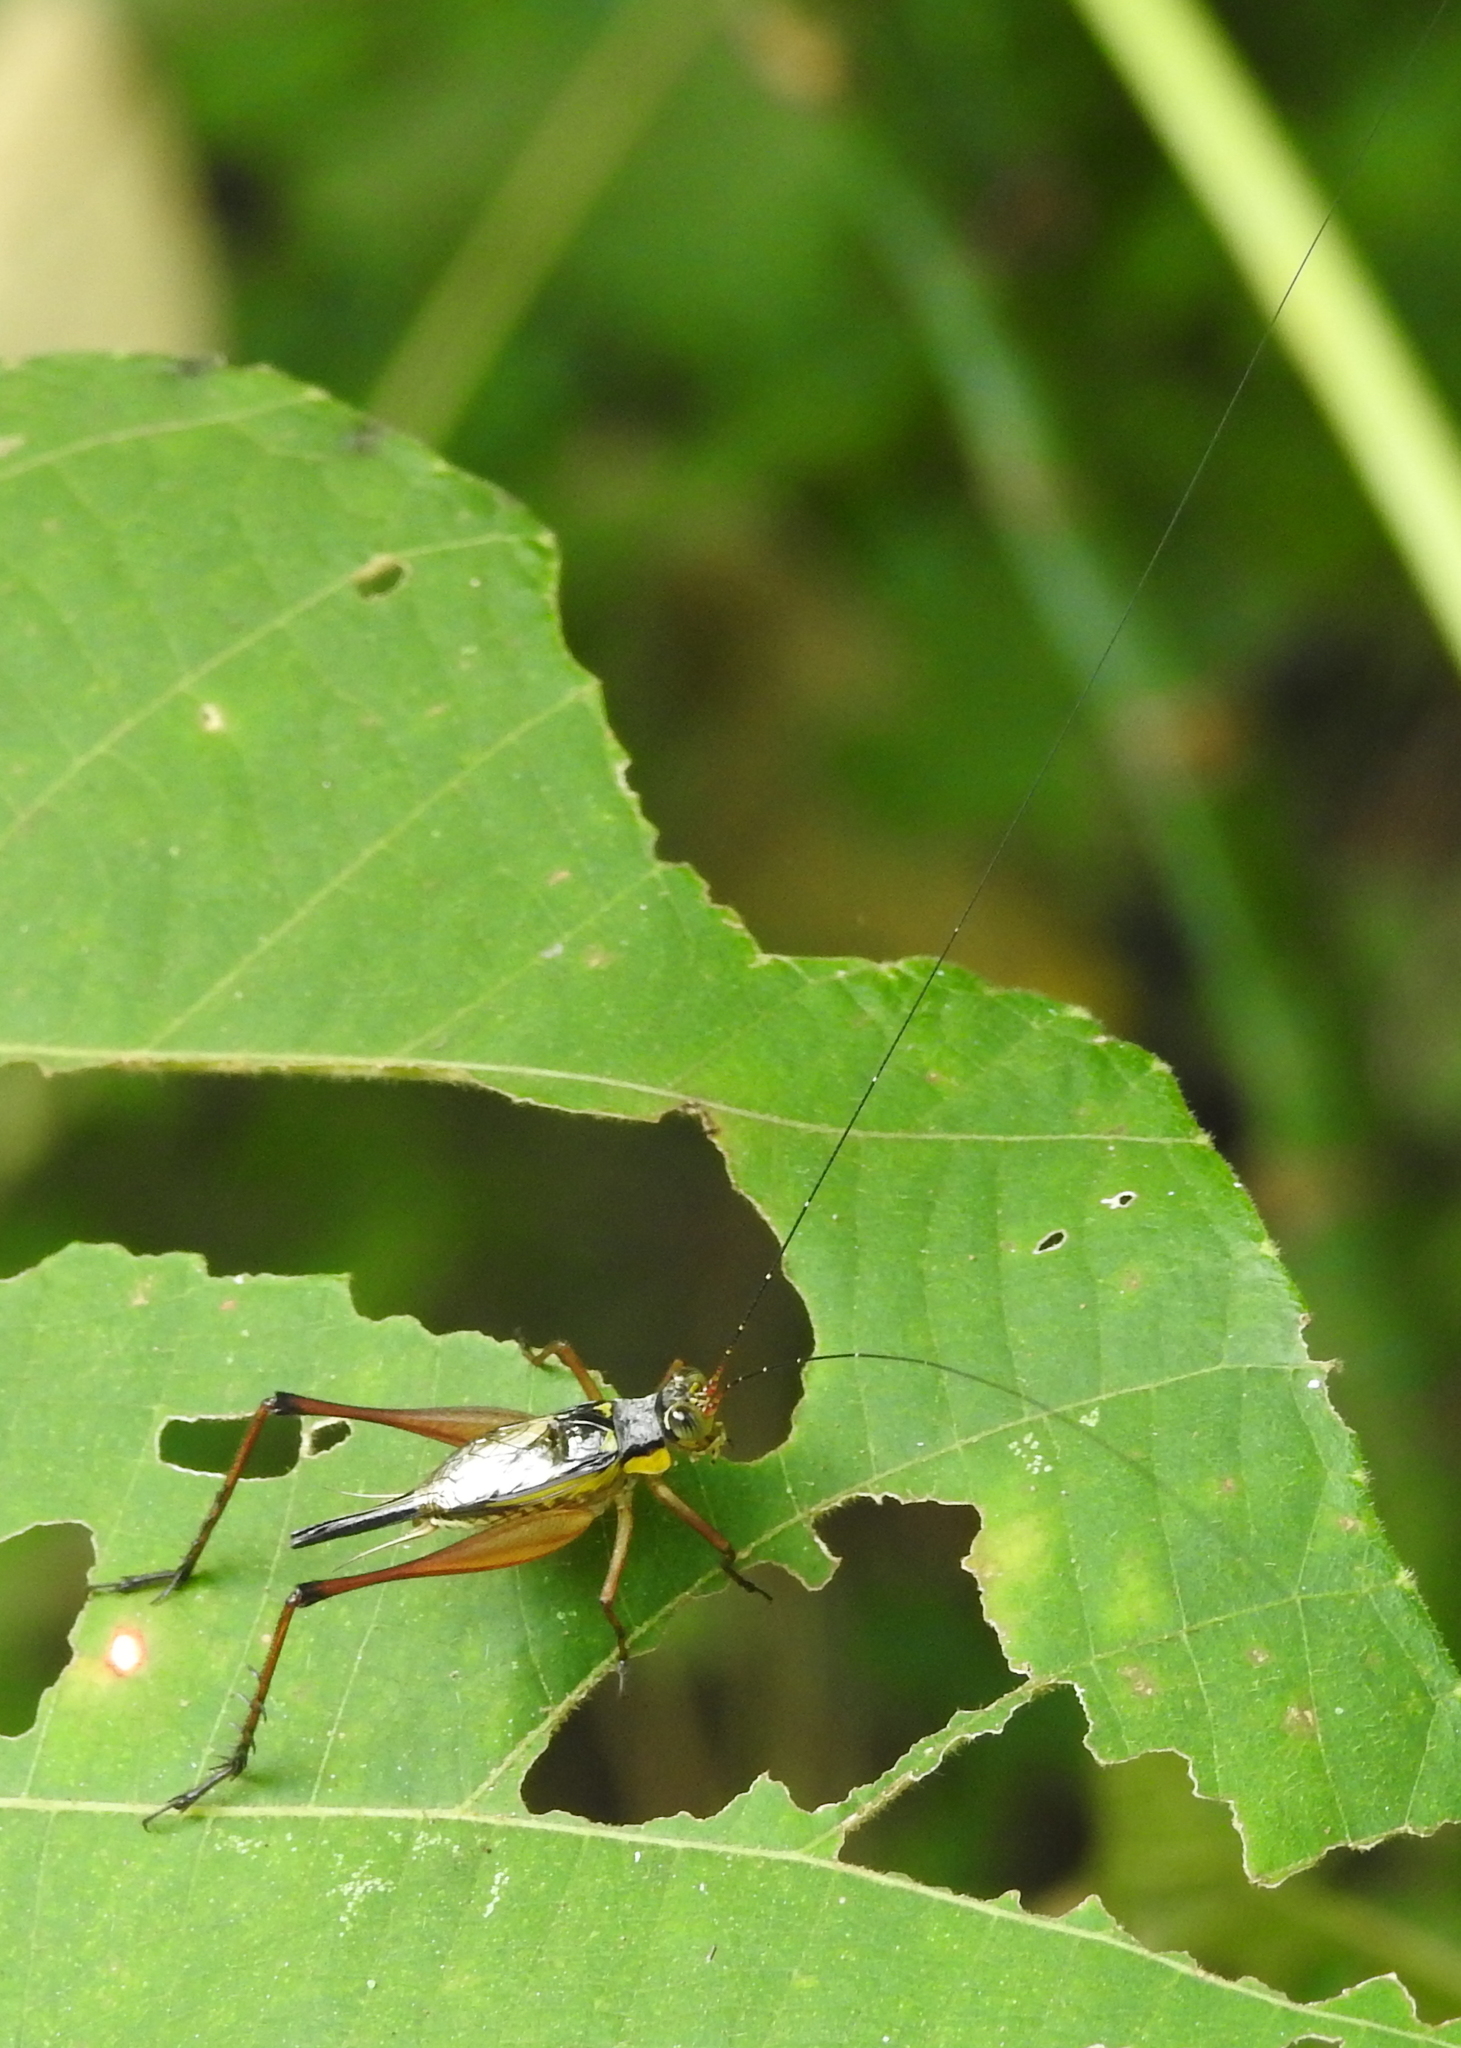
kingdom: Animalia
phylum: Arthropoda
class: Insecta
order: Orthoptera
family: Gryllidae
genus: Nisitrus
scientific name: Nisitrus malaya
